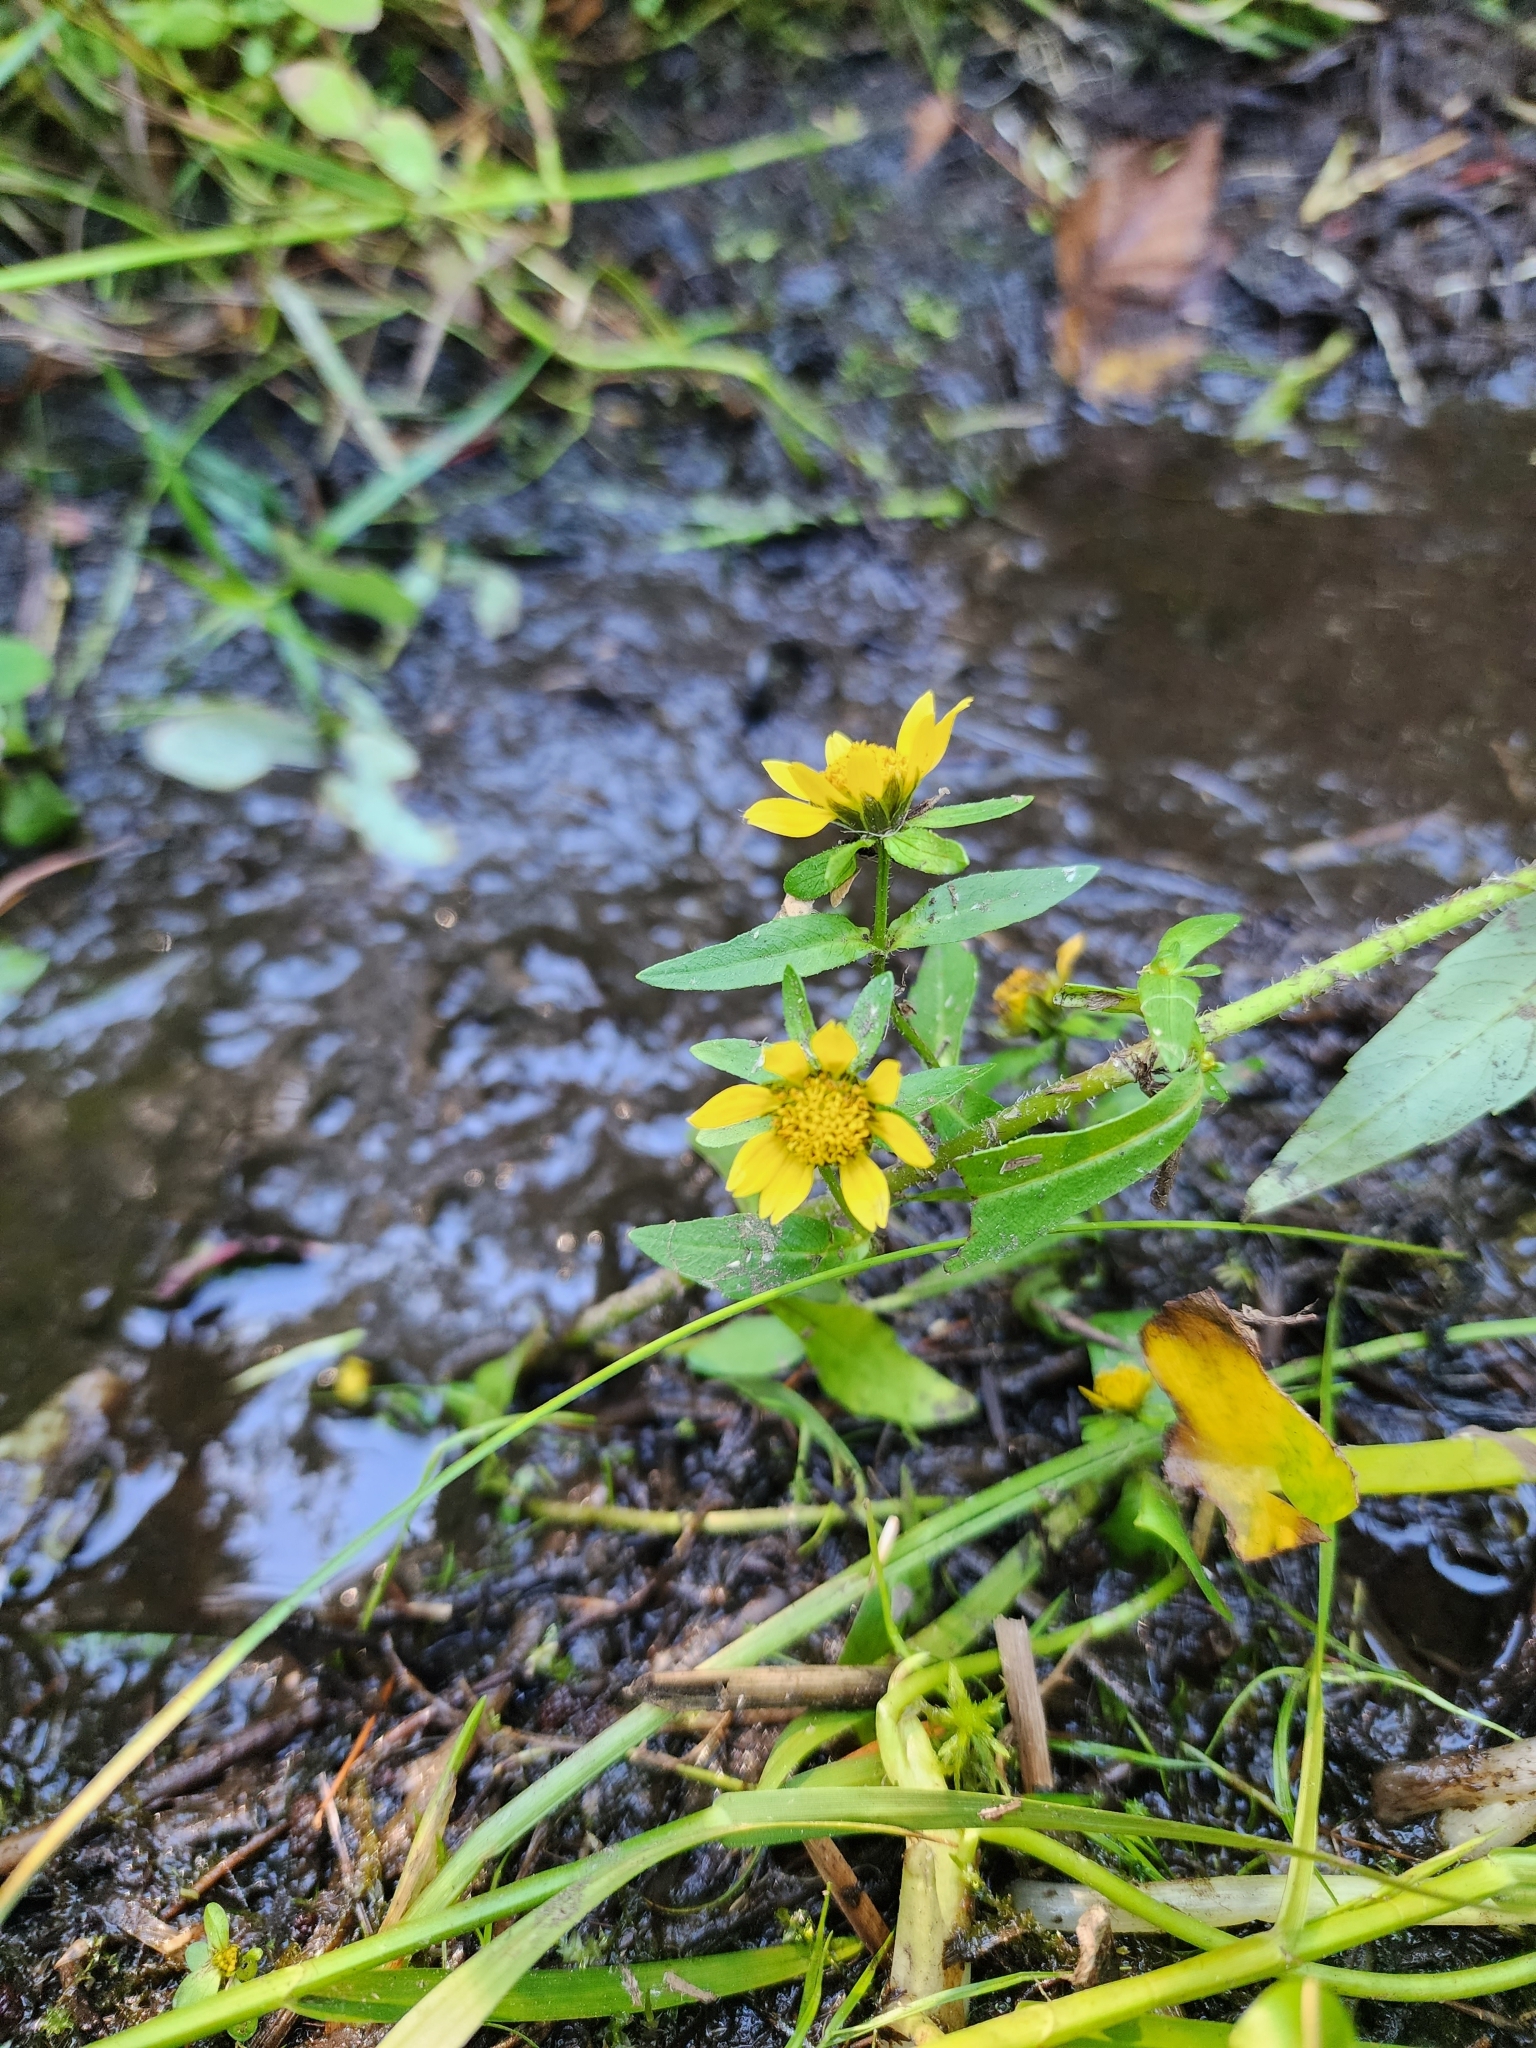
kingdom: Plantae
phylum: Tracheophyta
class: Magnoliopsida
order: Asterales
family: Asteraceae
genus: Bidens
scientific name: Bidens cernua
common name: Nodding bur-marigold
